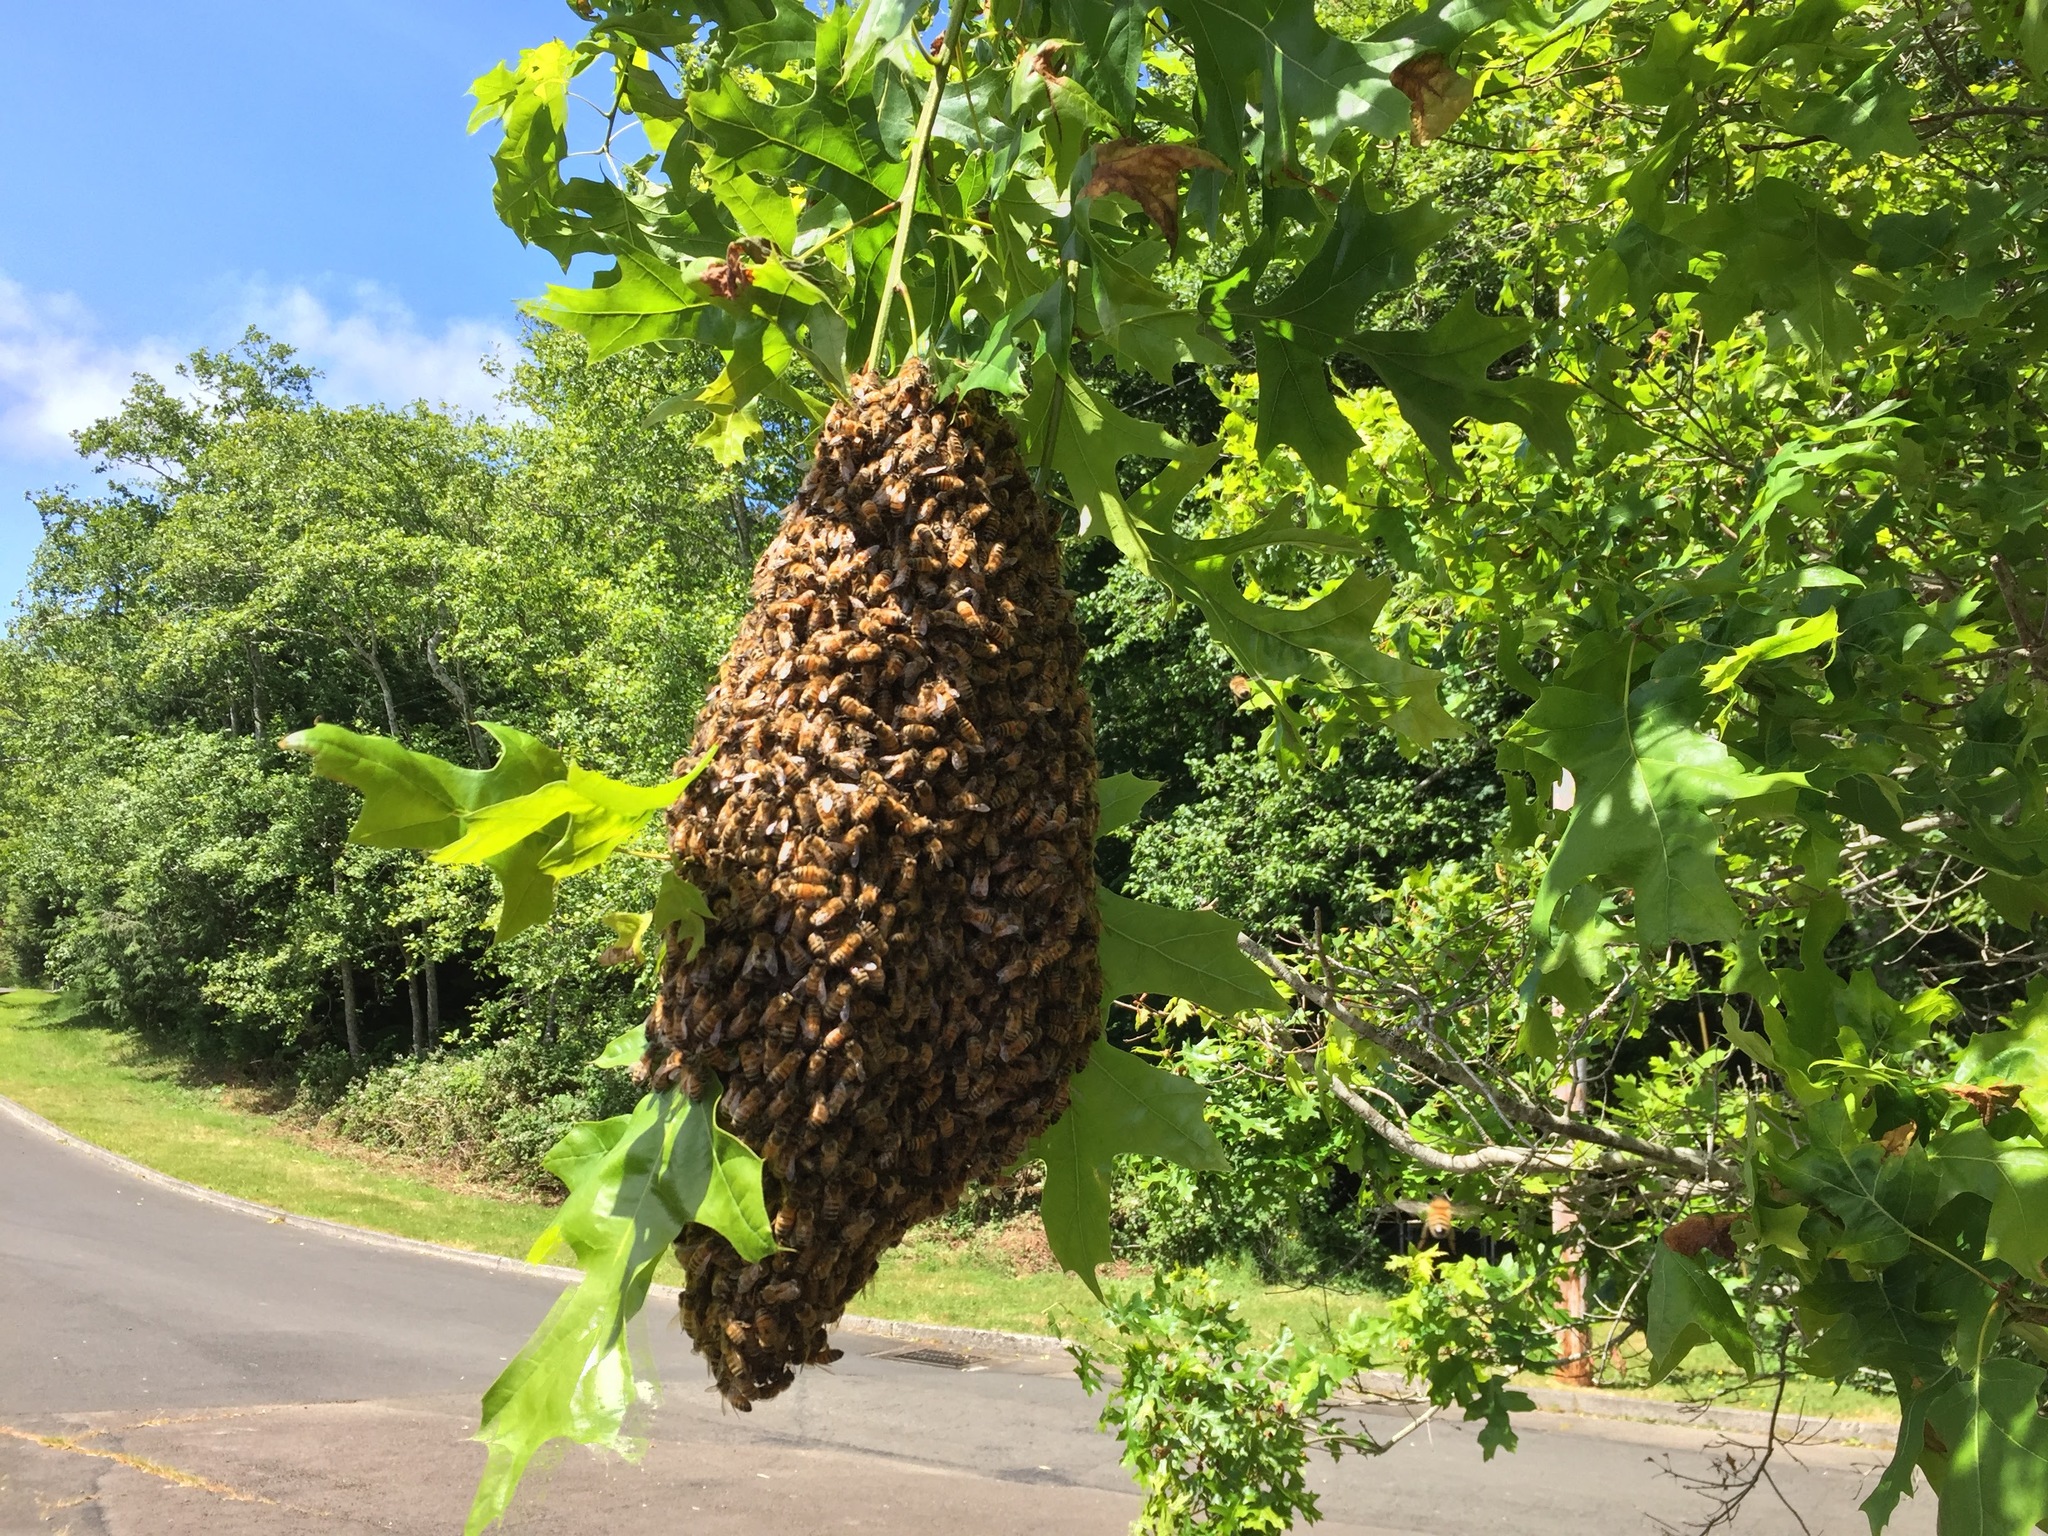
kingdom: Animalia
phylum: Arthropoda
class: Insecta
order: Hymenoptera
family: Apidae
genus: Apis
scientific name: Apis mellifera
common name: Honey bee
